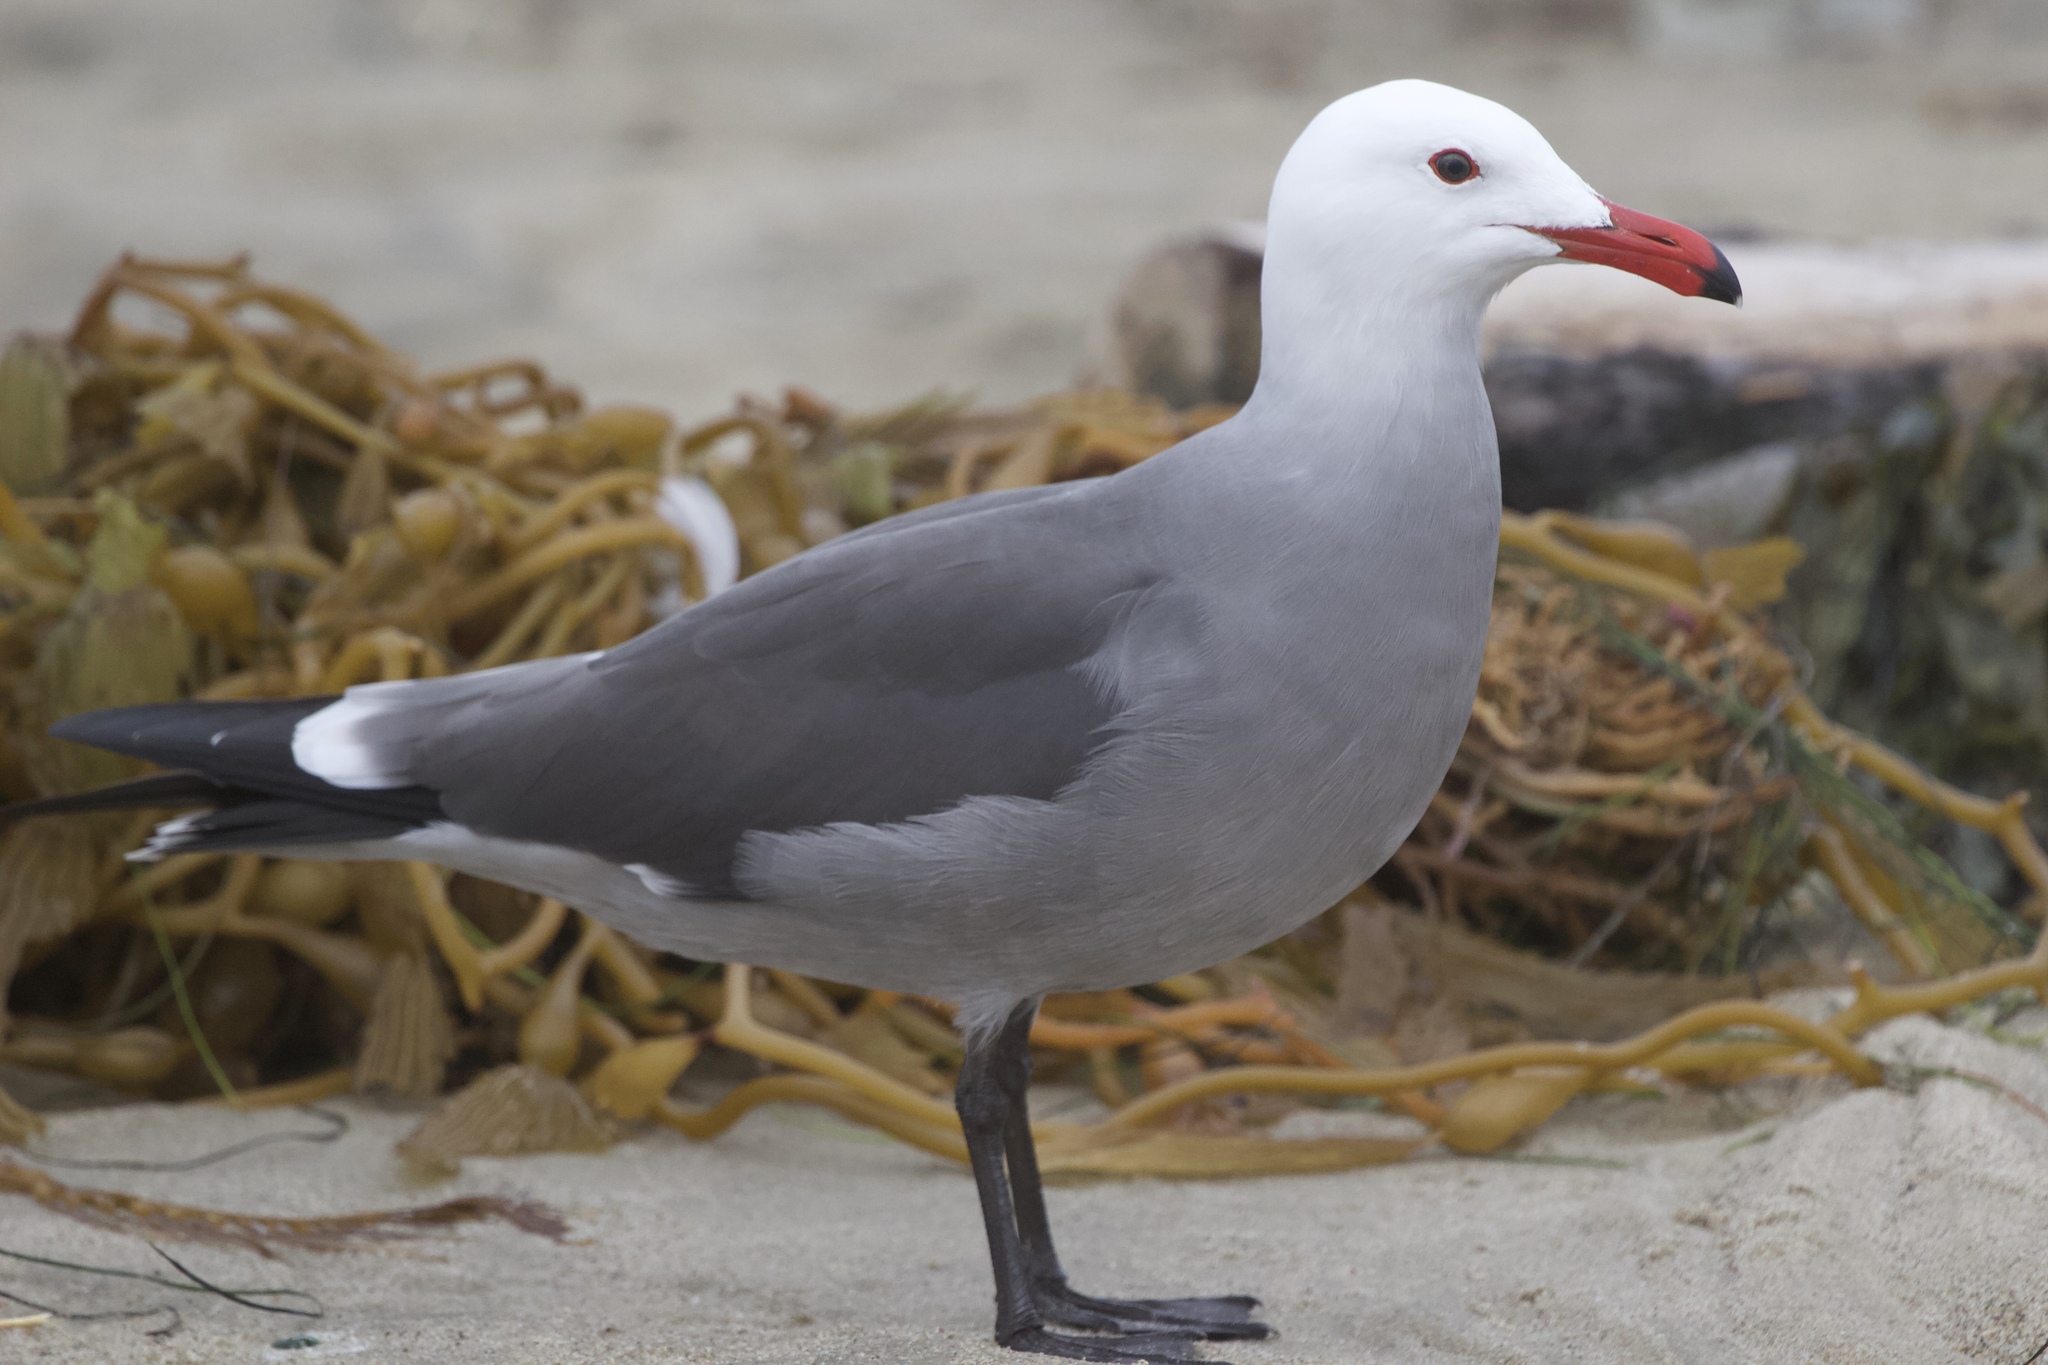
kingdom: Animalia
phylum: Chordata
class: Aves
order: Charadriiformes
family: Laridae
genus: Larus
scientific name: Larus heermanni
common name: Heermann's gull
